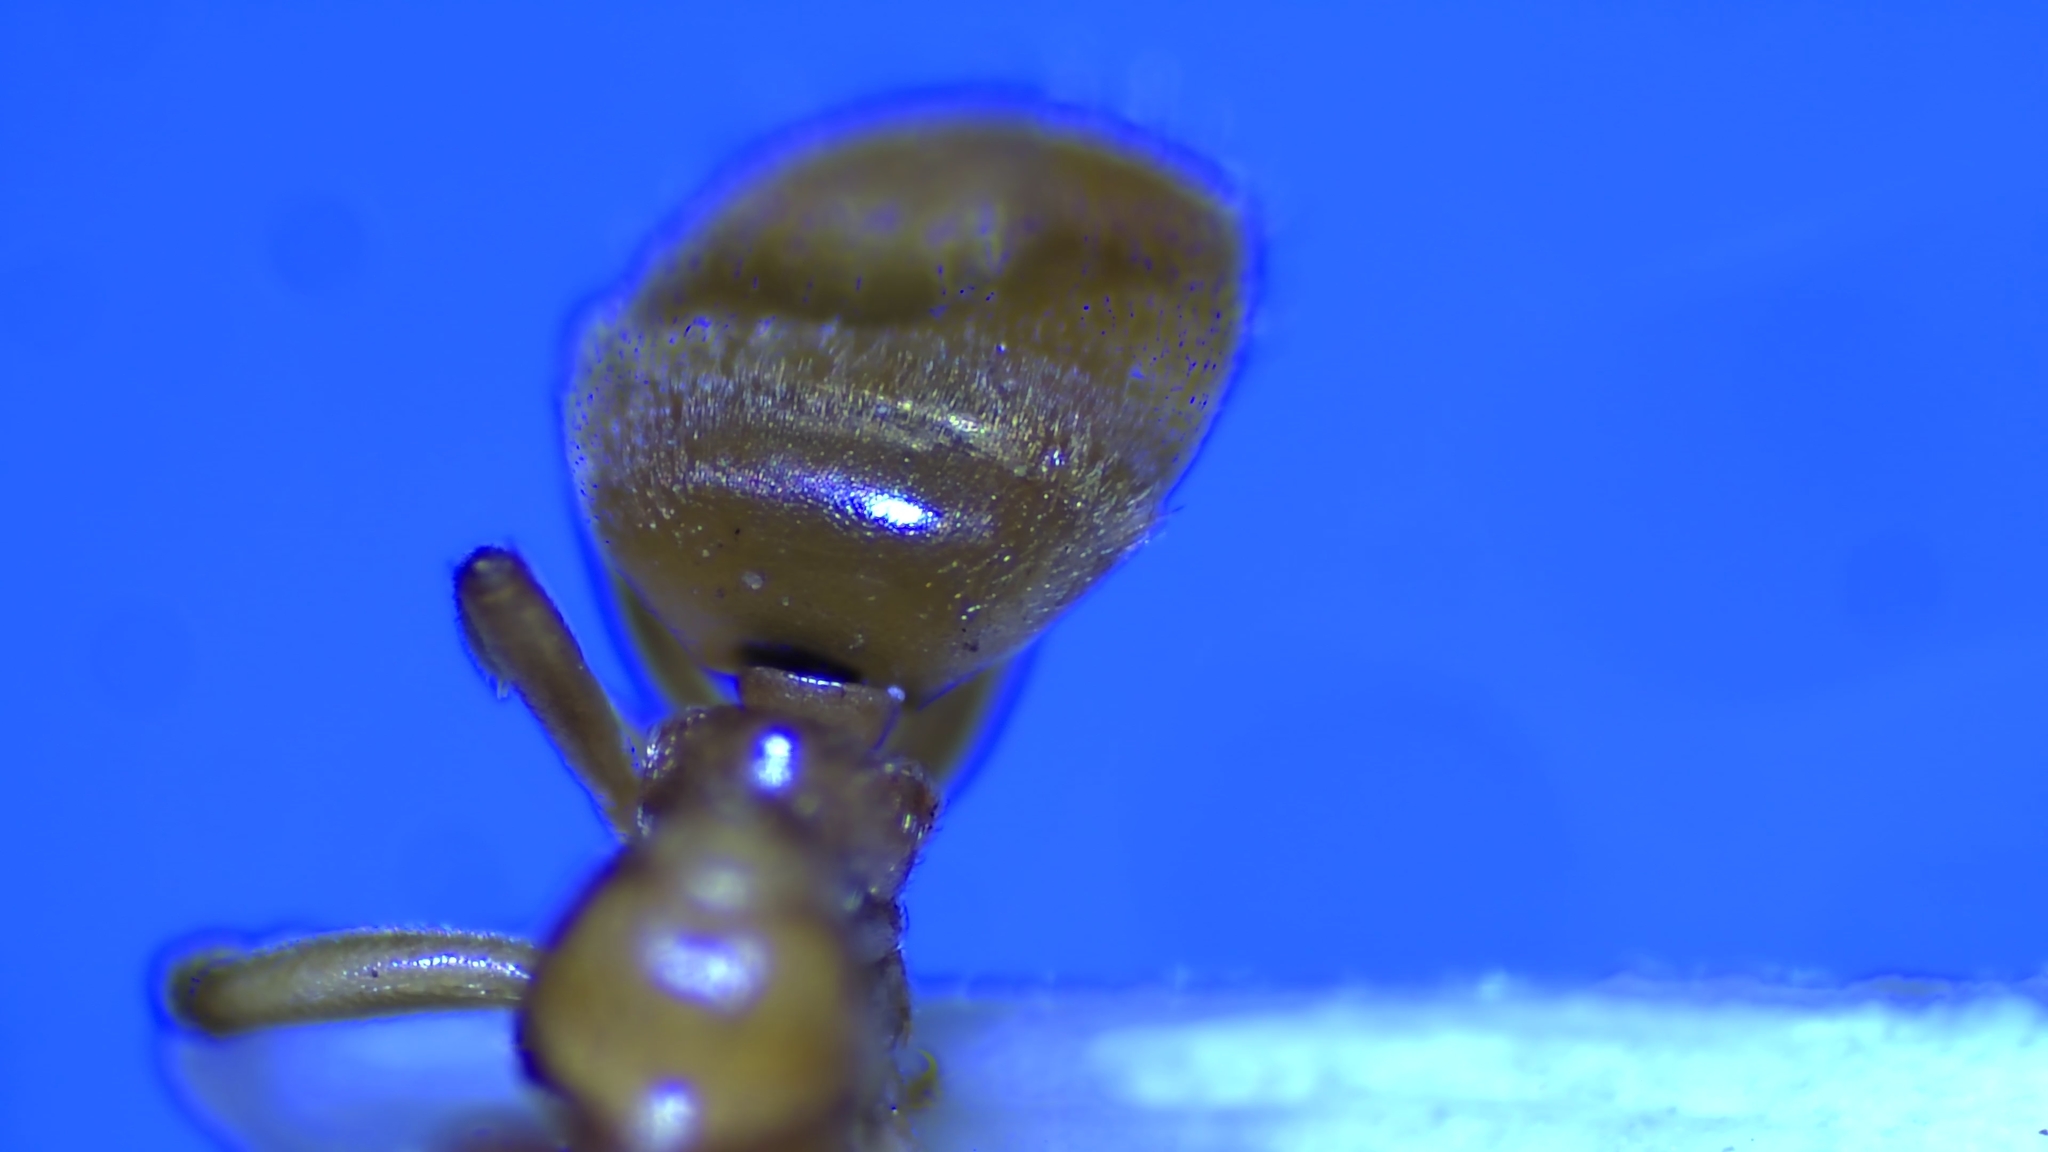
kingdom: Animalia
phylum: Arthropoda
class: Insecta
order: Hymenoptera
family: Formicidae
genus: Lasius
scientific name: Lasius
